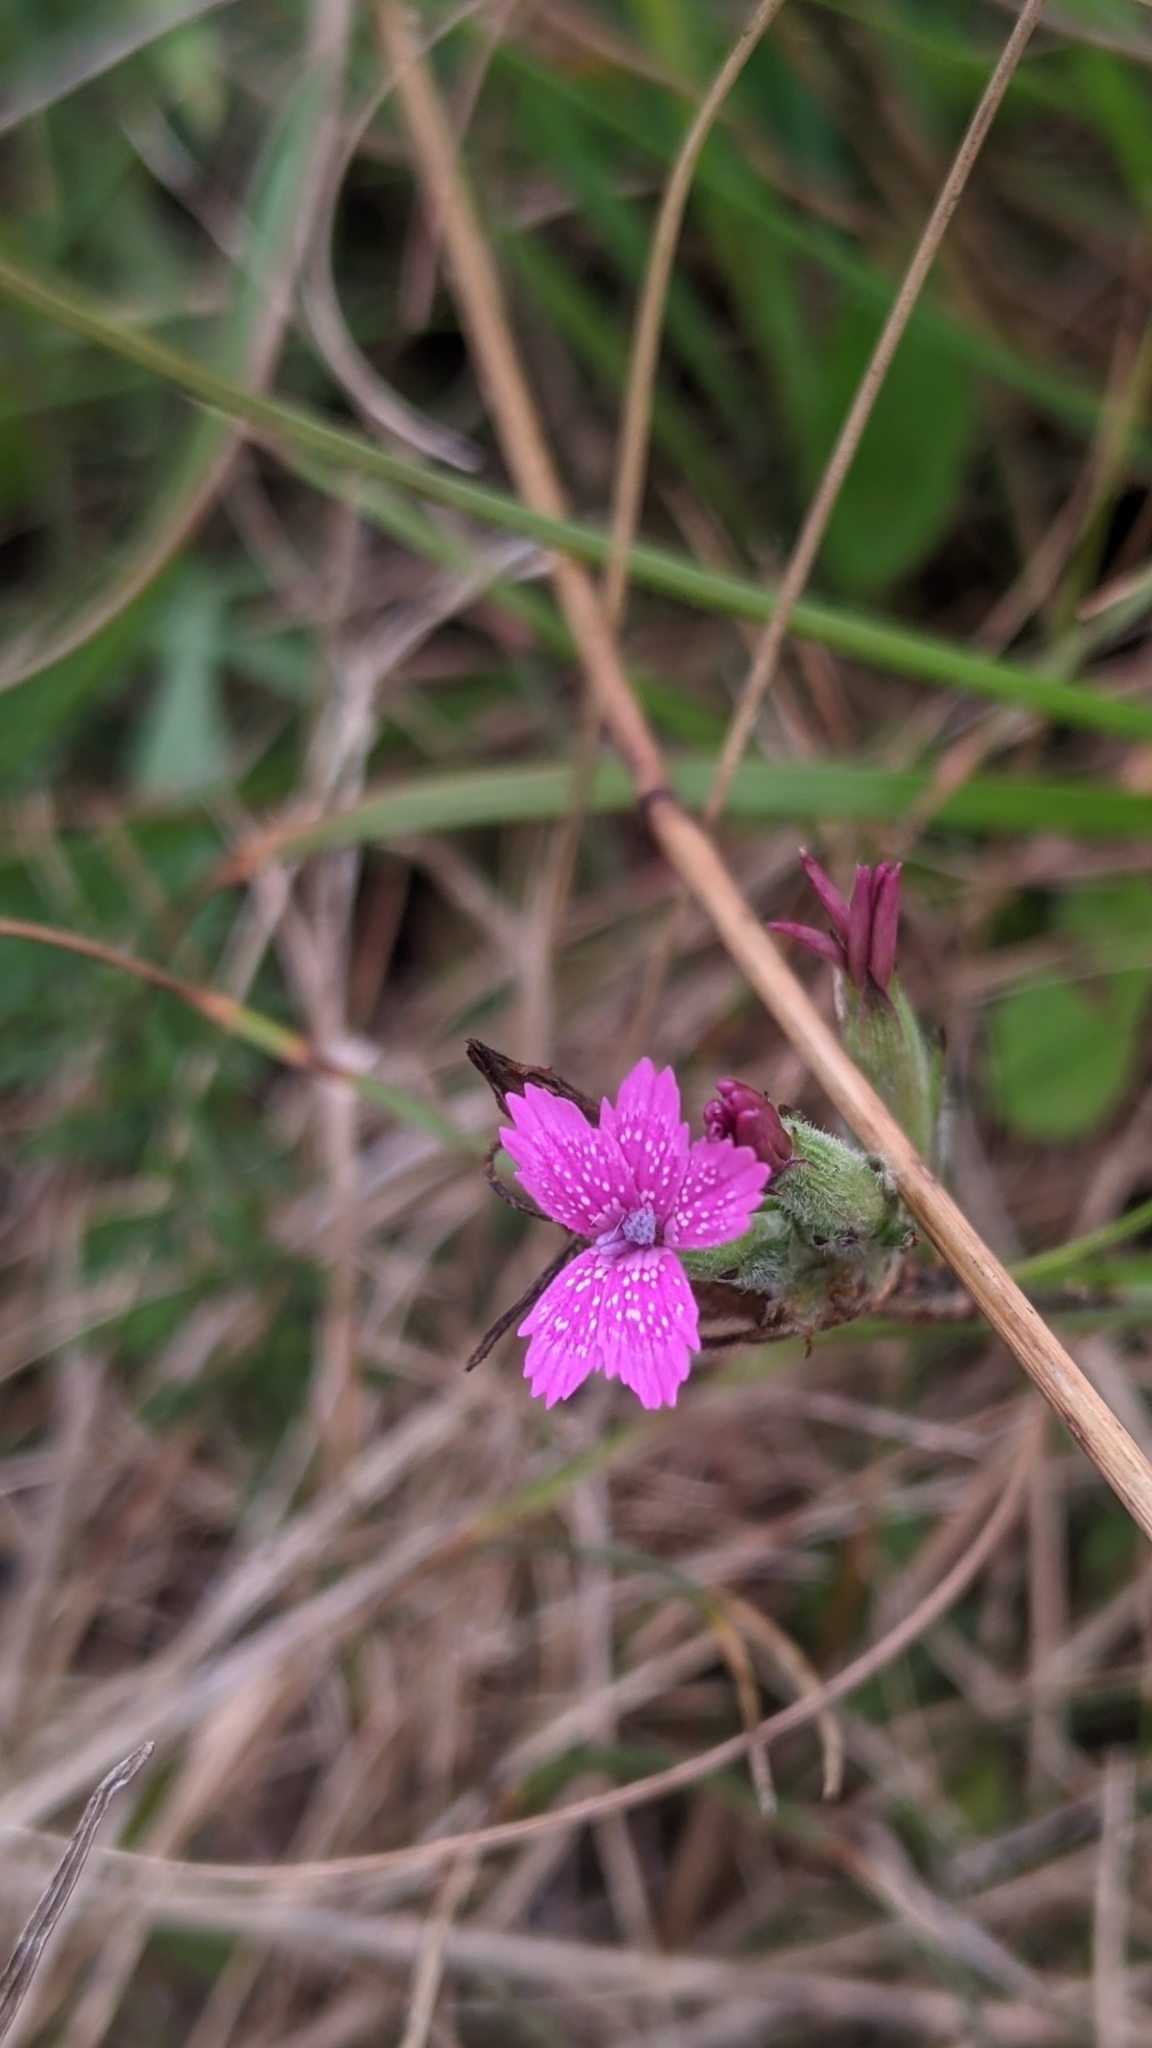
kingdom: Plantae
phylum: Tracheophyta
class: Magnoliopsida
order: Caryophyllales
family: Caryophyllaceae
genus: Dianthus
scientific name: Dianthus armeria
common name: Deptford pink
